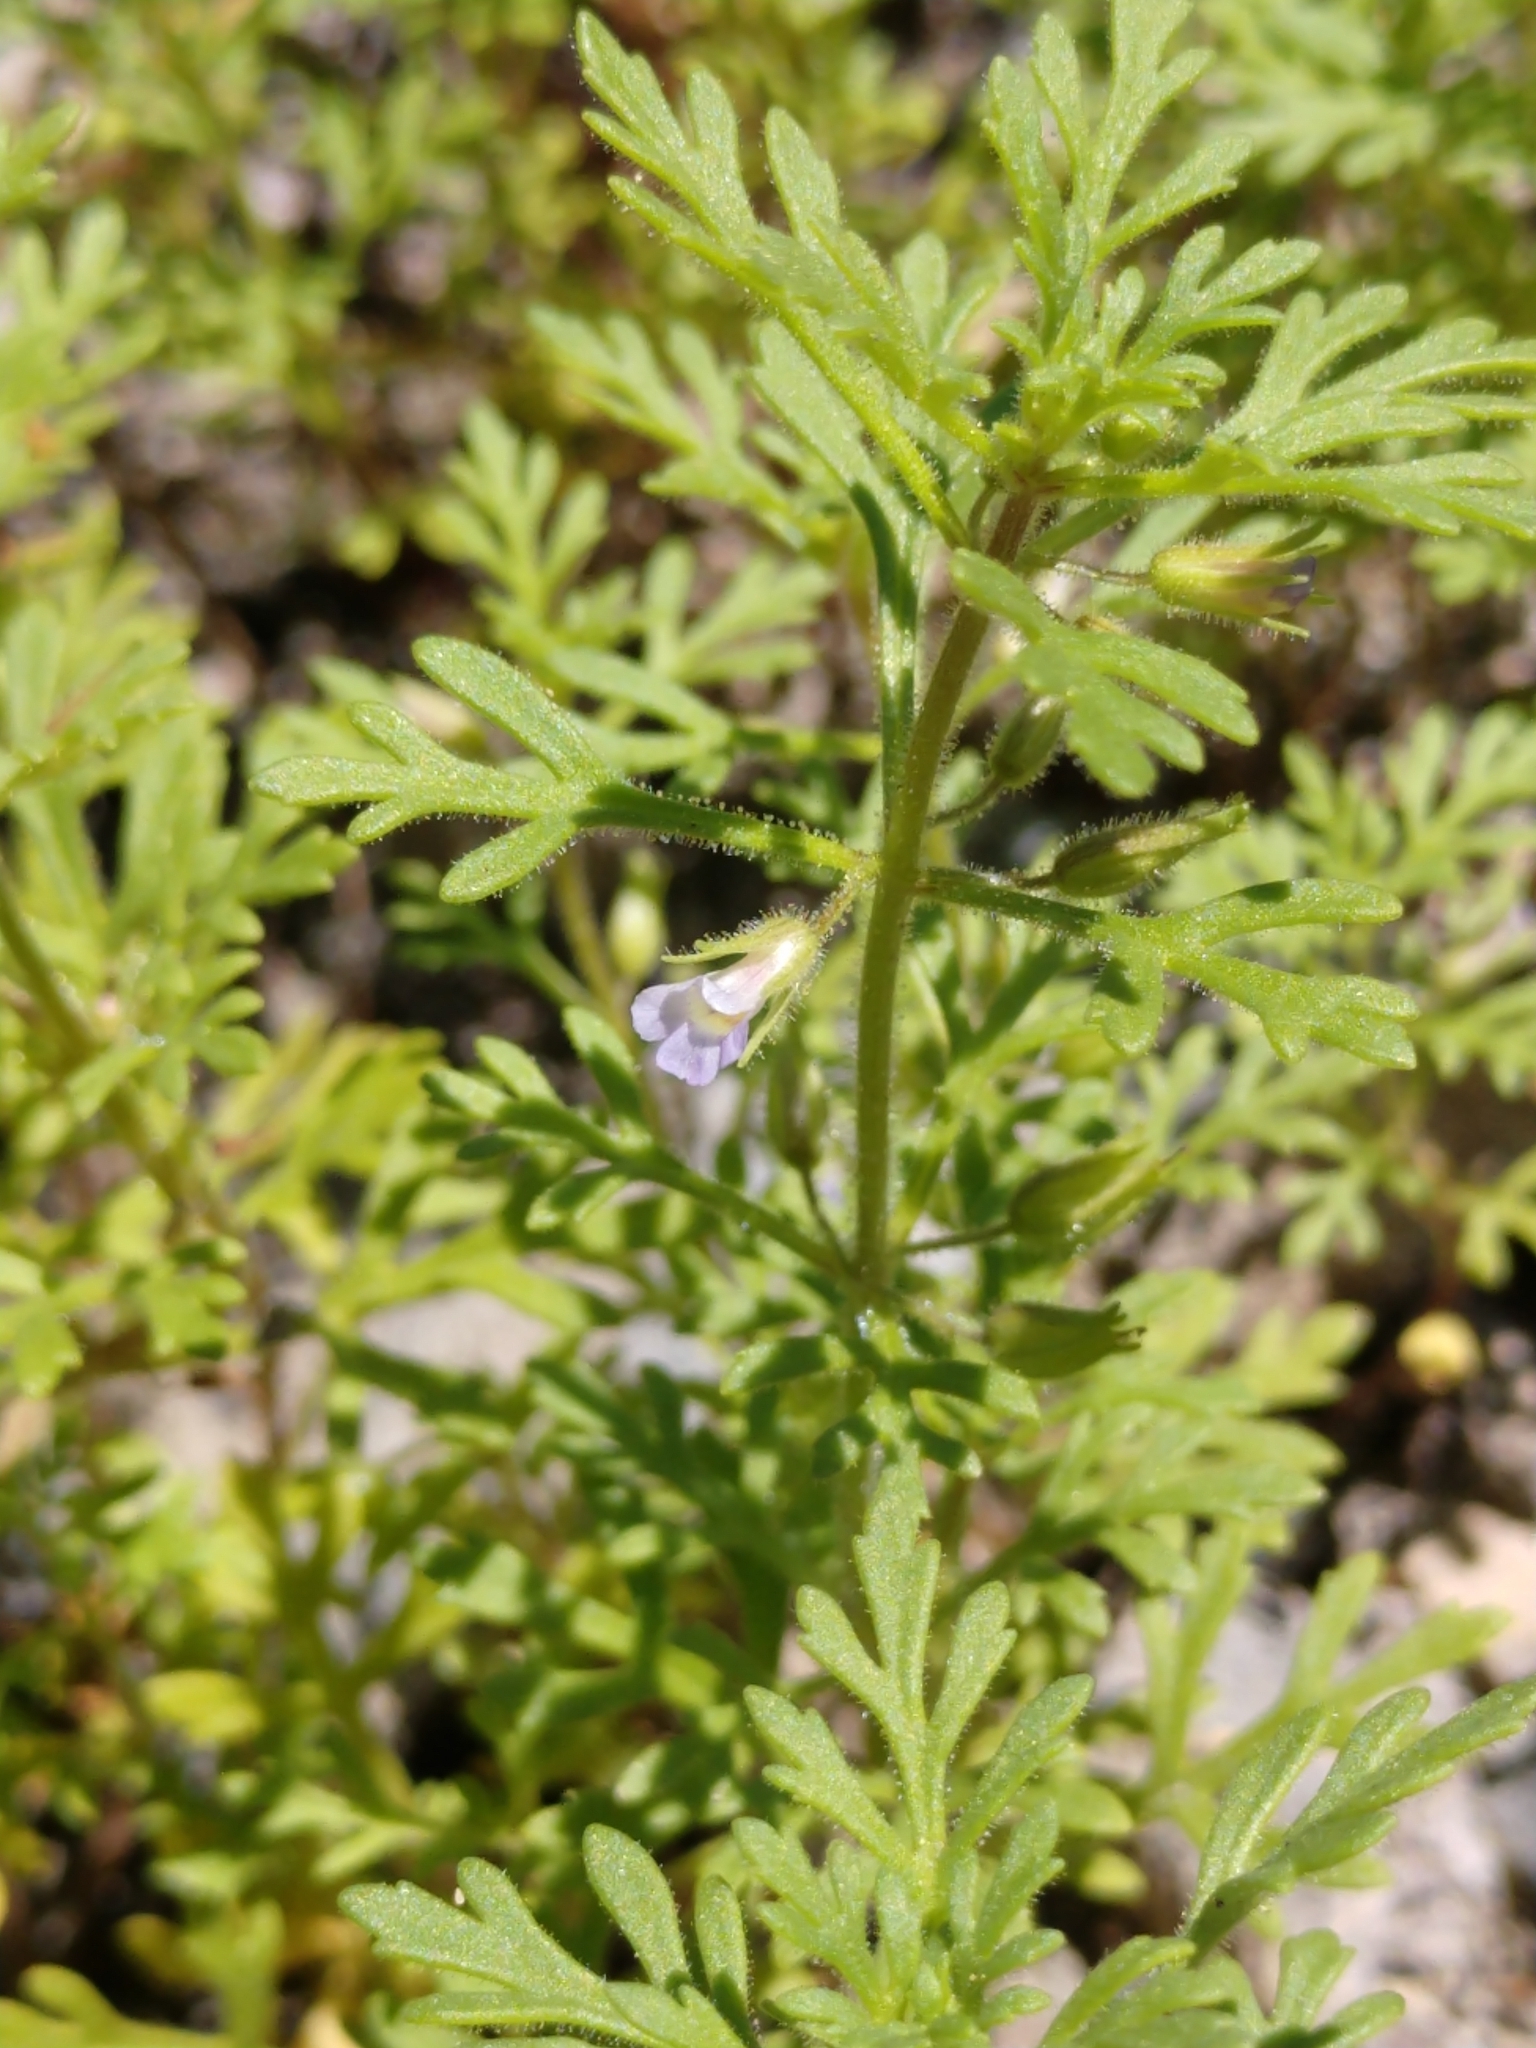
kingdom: Plantae
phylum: Tracheophyta
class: Magnoliopsida
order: Lamiales
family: Plantaginaceae
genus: Leucospora
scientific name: Leucospora multifida
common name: Narrow-leaf paleseed
